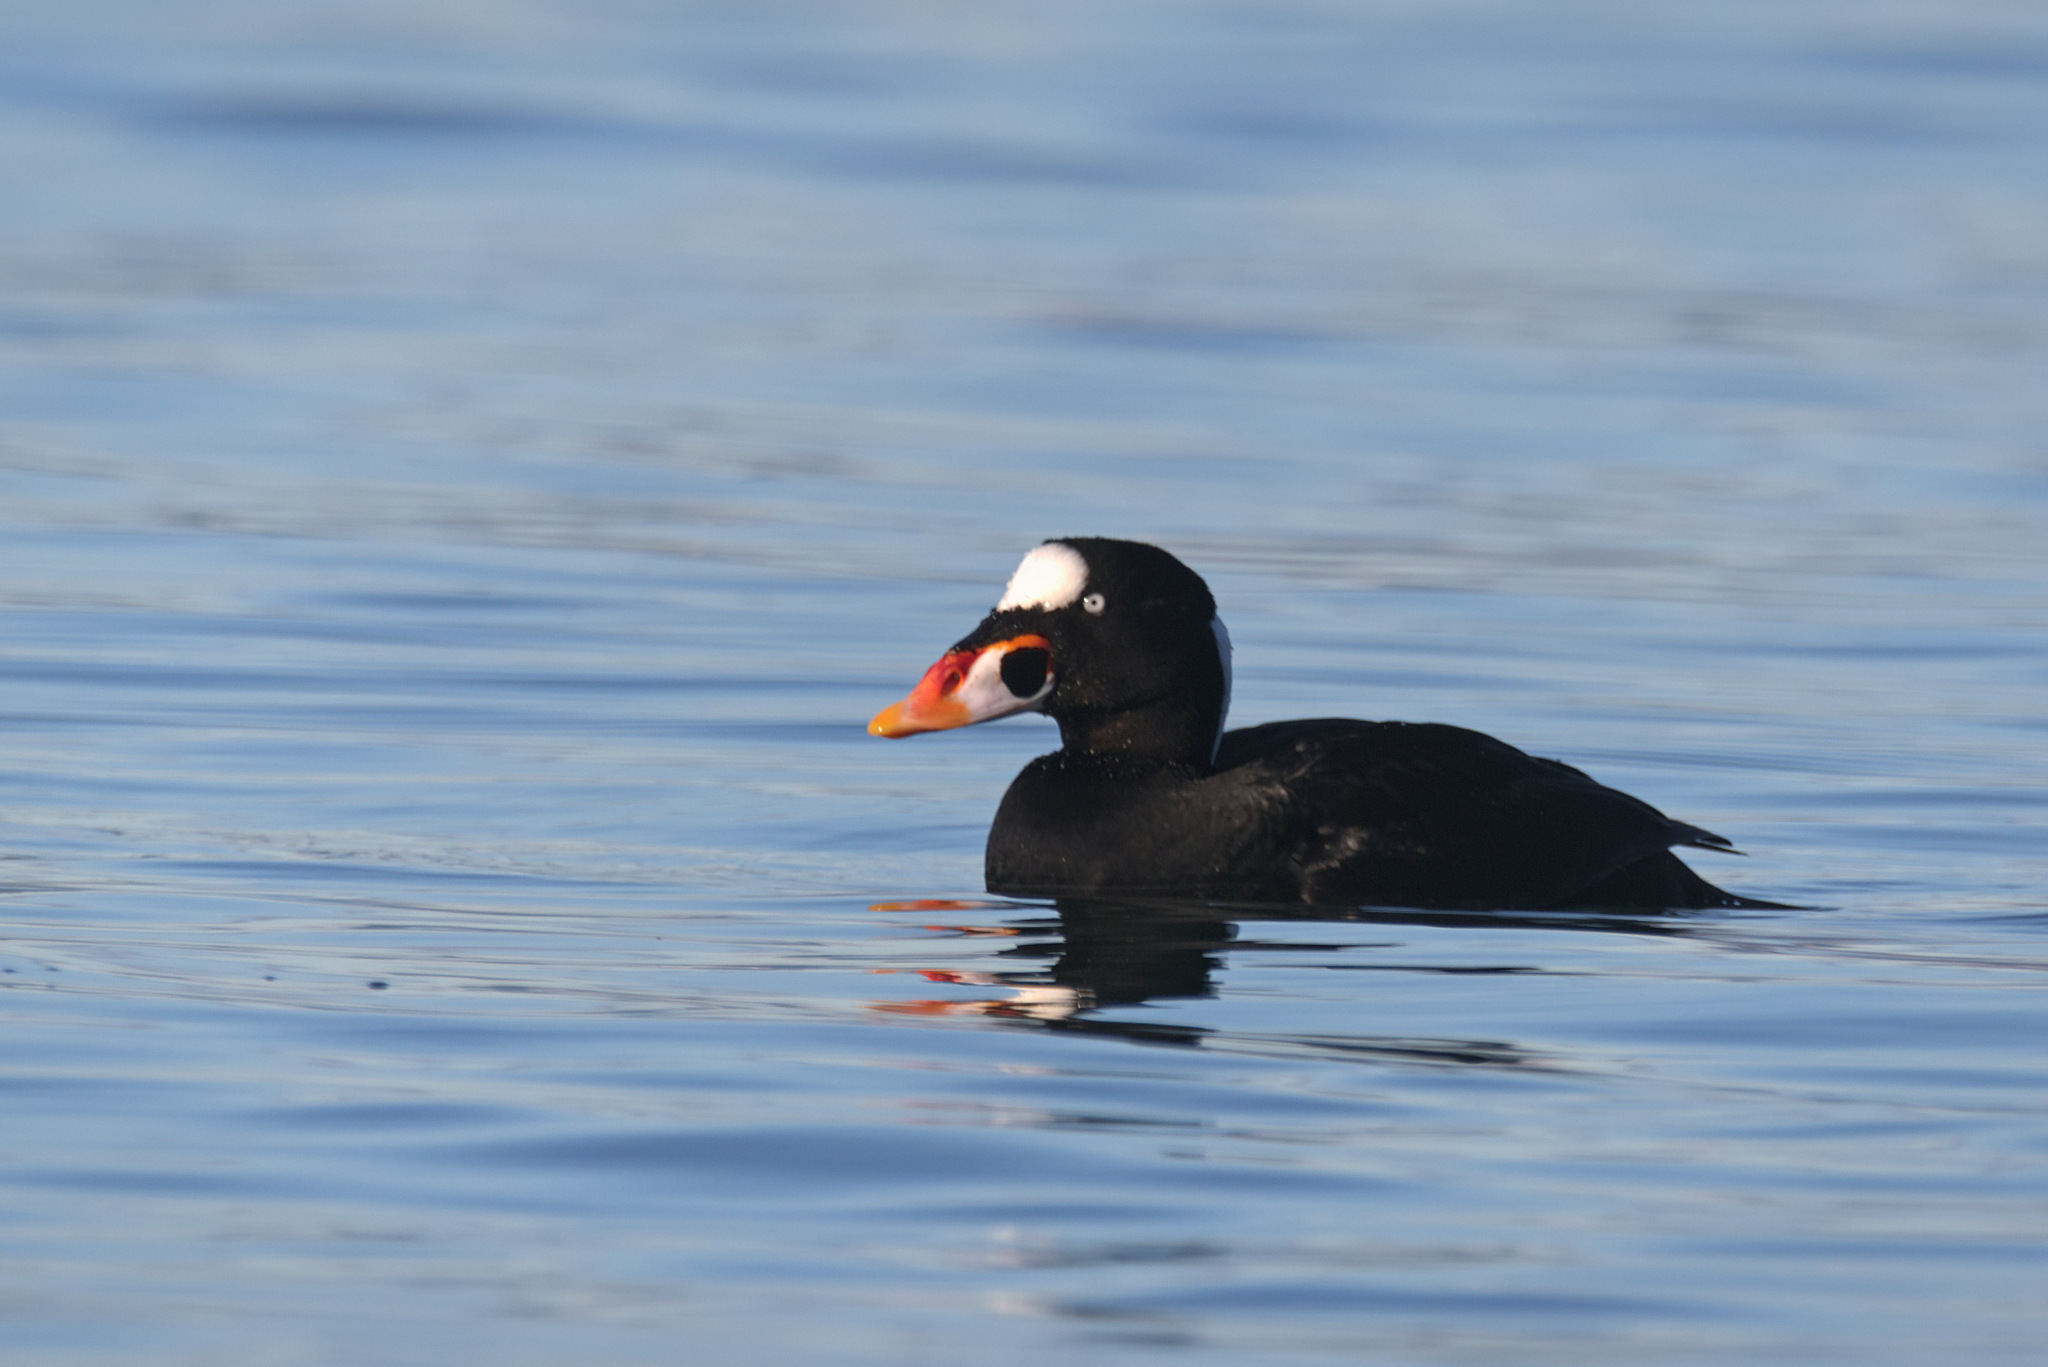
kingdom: Animalia
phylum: Chordata
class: Aves
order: Anseriformes
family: Anatidae
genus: Melanitta
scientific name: Melanitta perspicillata
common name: Surf scoter
